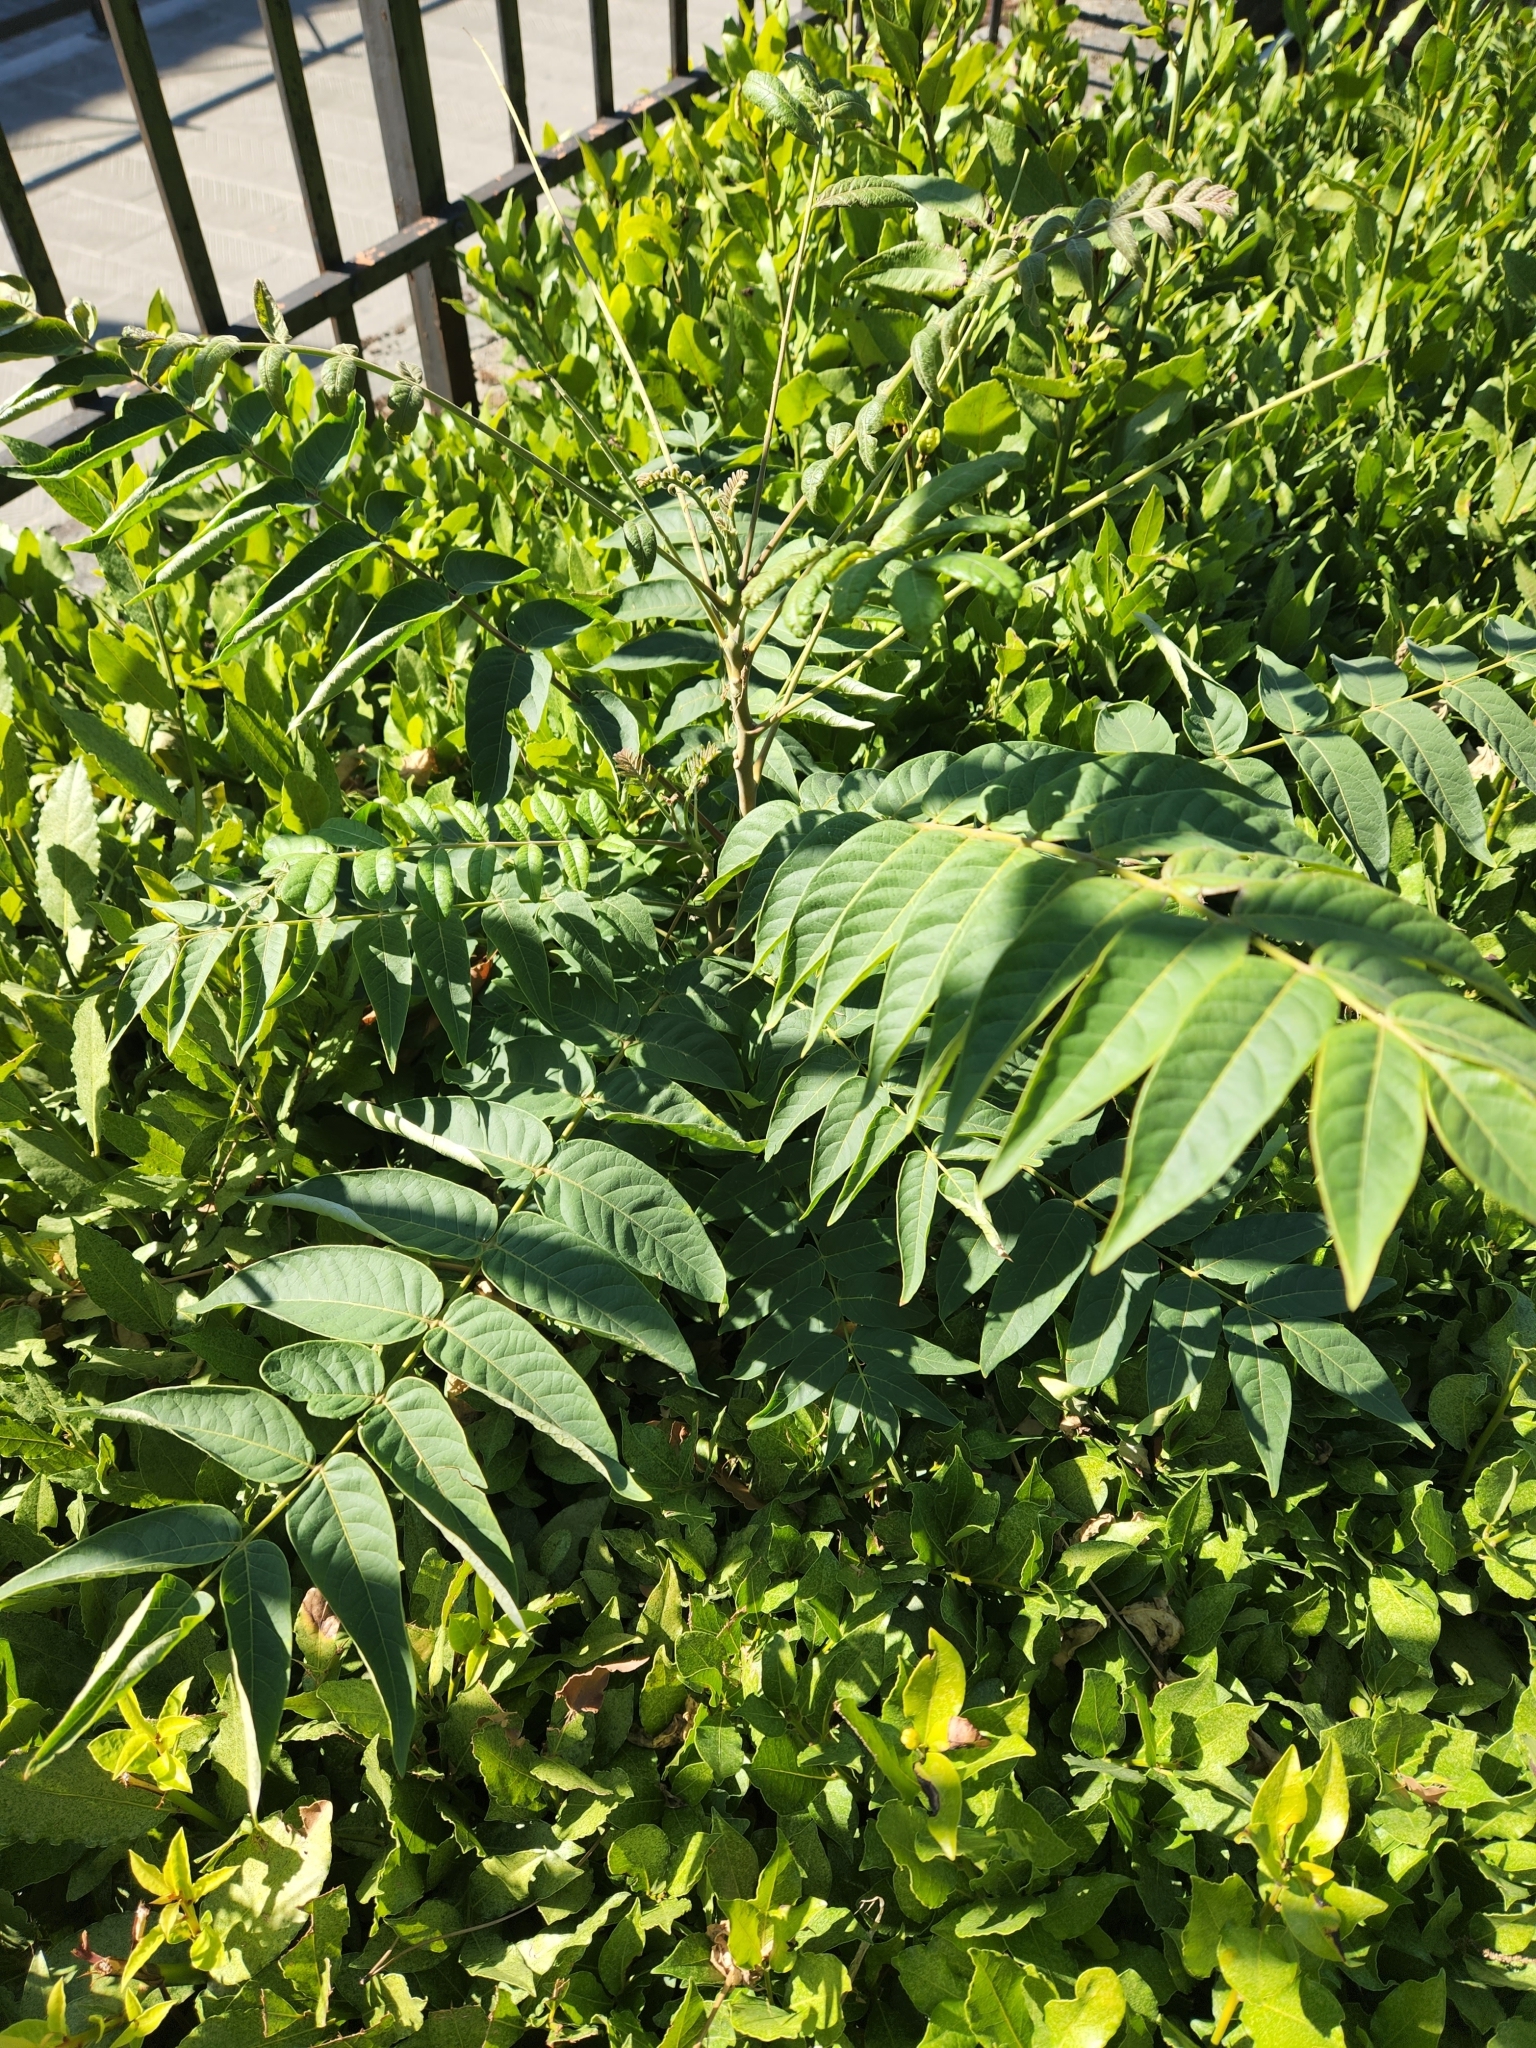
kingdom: Plantae
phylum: Tracheophyta
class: Magnoliopsida
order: Sapindales
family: Simaroubaceae
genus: Ailanthus
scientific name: Ailanthus altissima
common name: Tree-of-heaven
